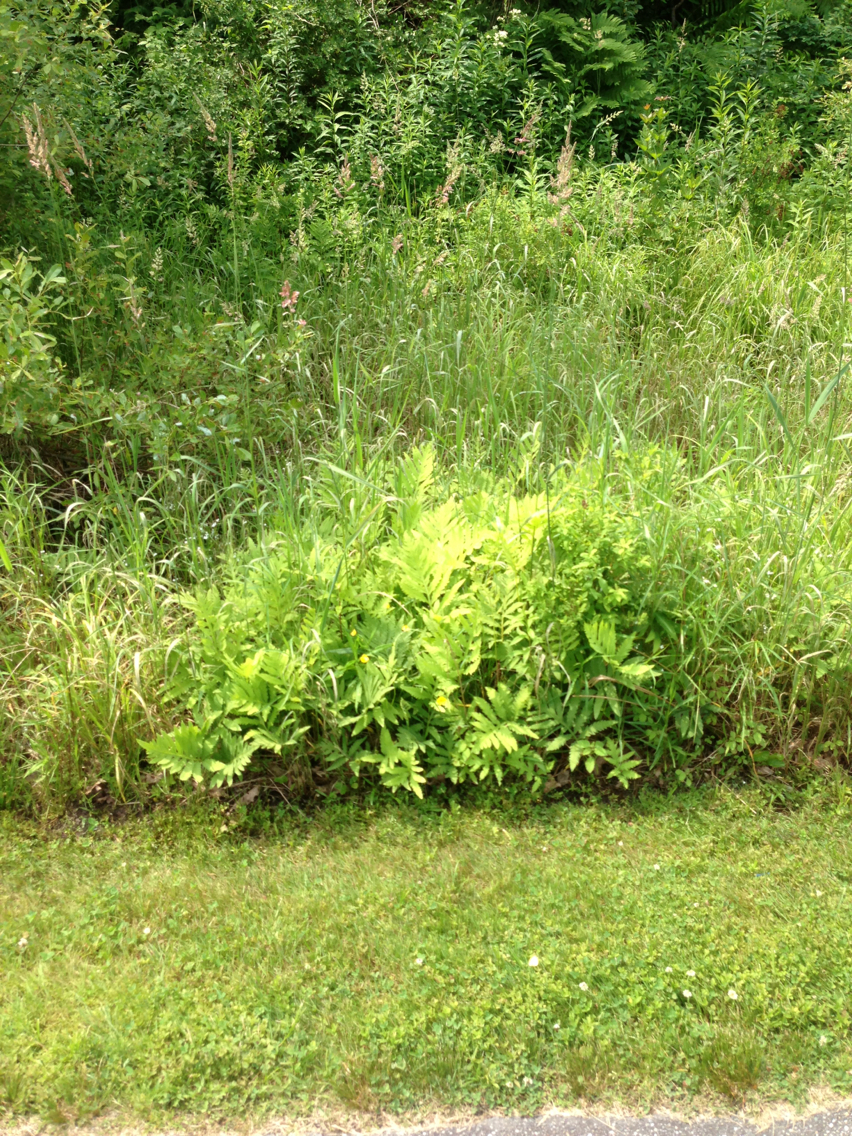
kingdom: Plantae
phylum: Tracheophyta
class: Polypodiopsida
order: Polypodiales
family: Onocleaceae
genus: Onoclea
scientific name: Onoclea sensibilis
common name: Sensitive fern
